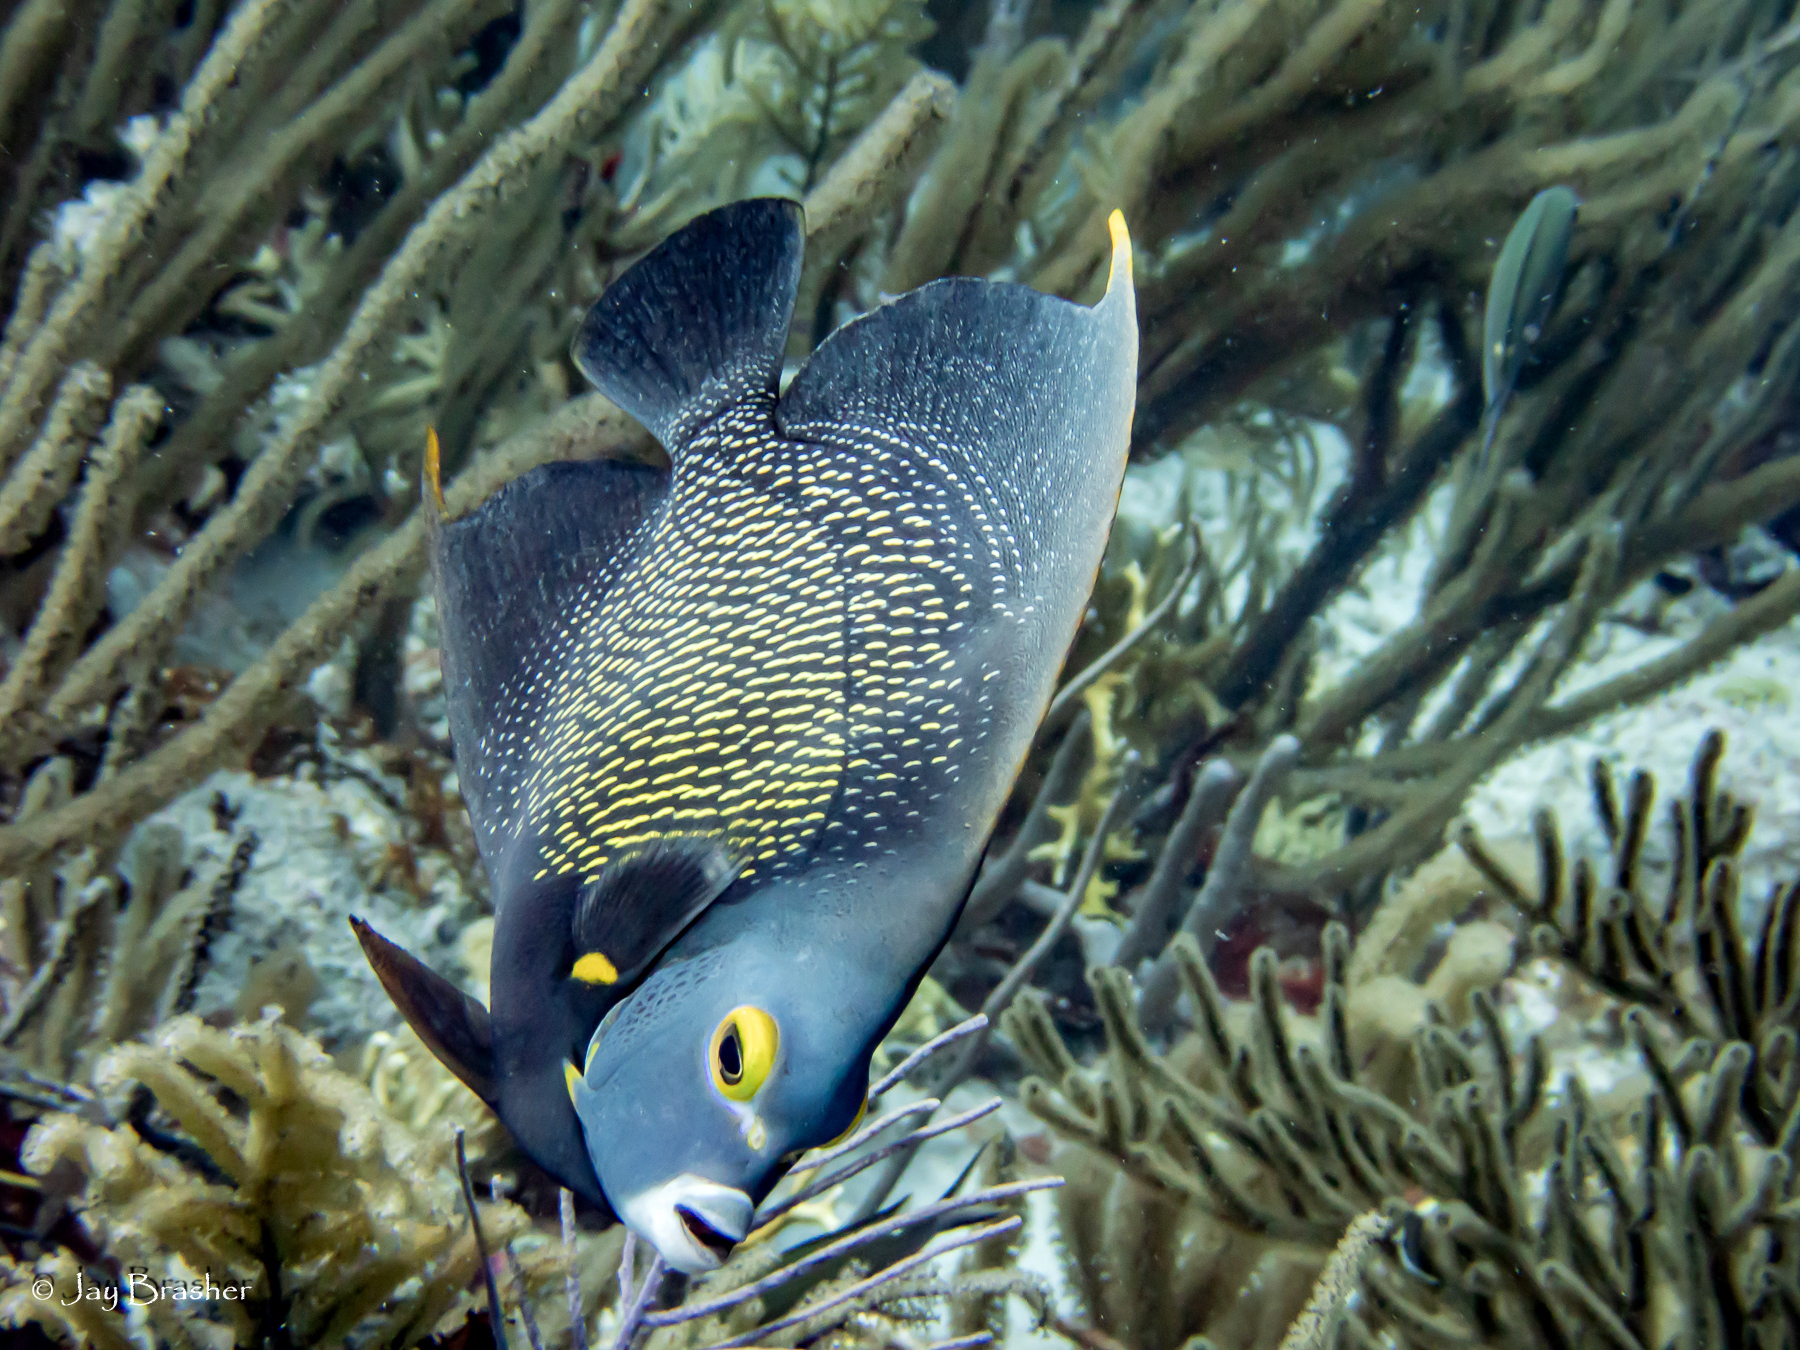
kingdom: Animalia
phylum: Chordata
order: Perciformes
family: Pomacanthidae
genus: Pomacanthus
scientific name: Pomacanthus paru
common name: French angelfish
